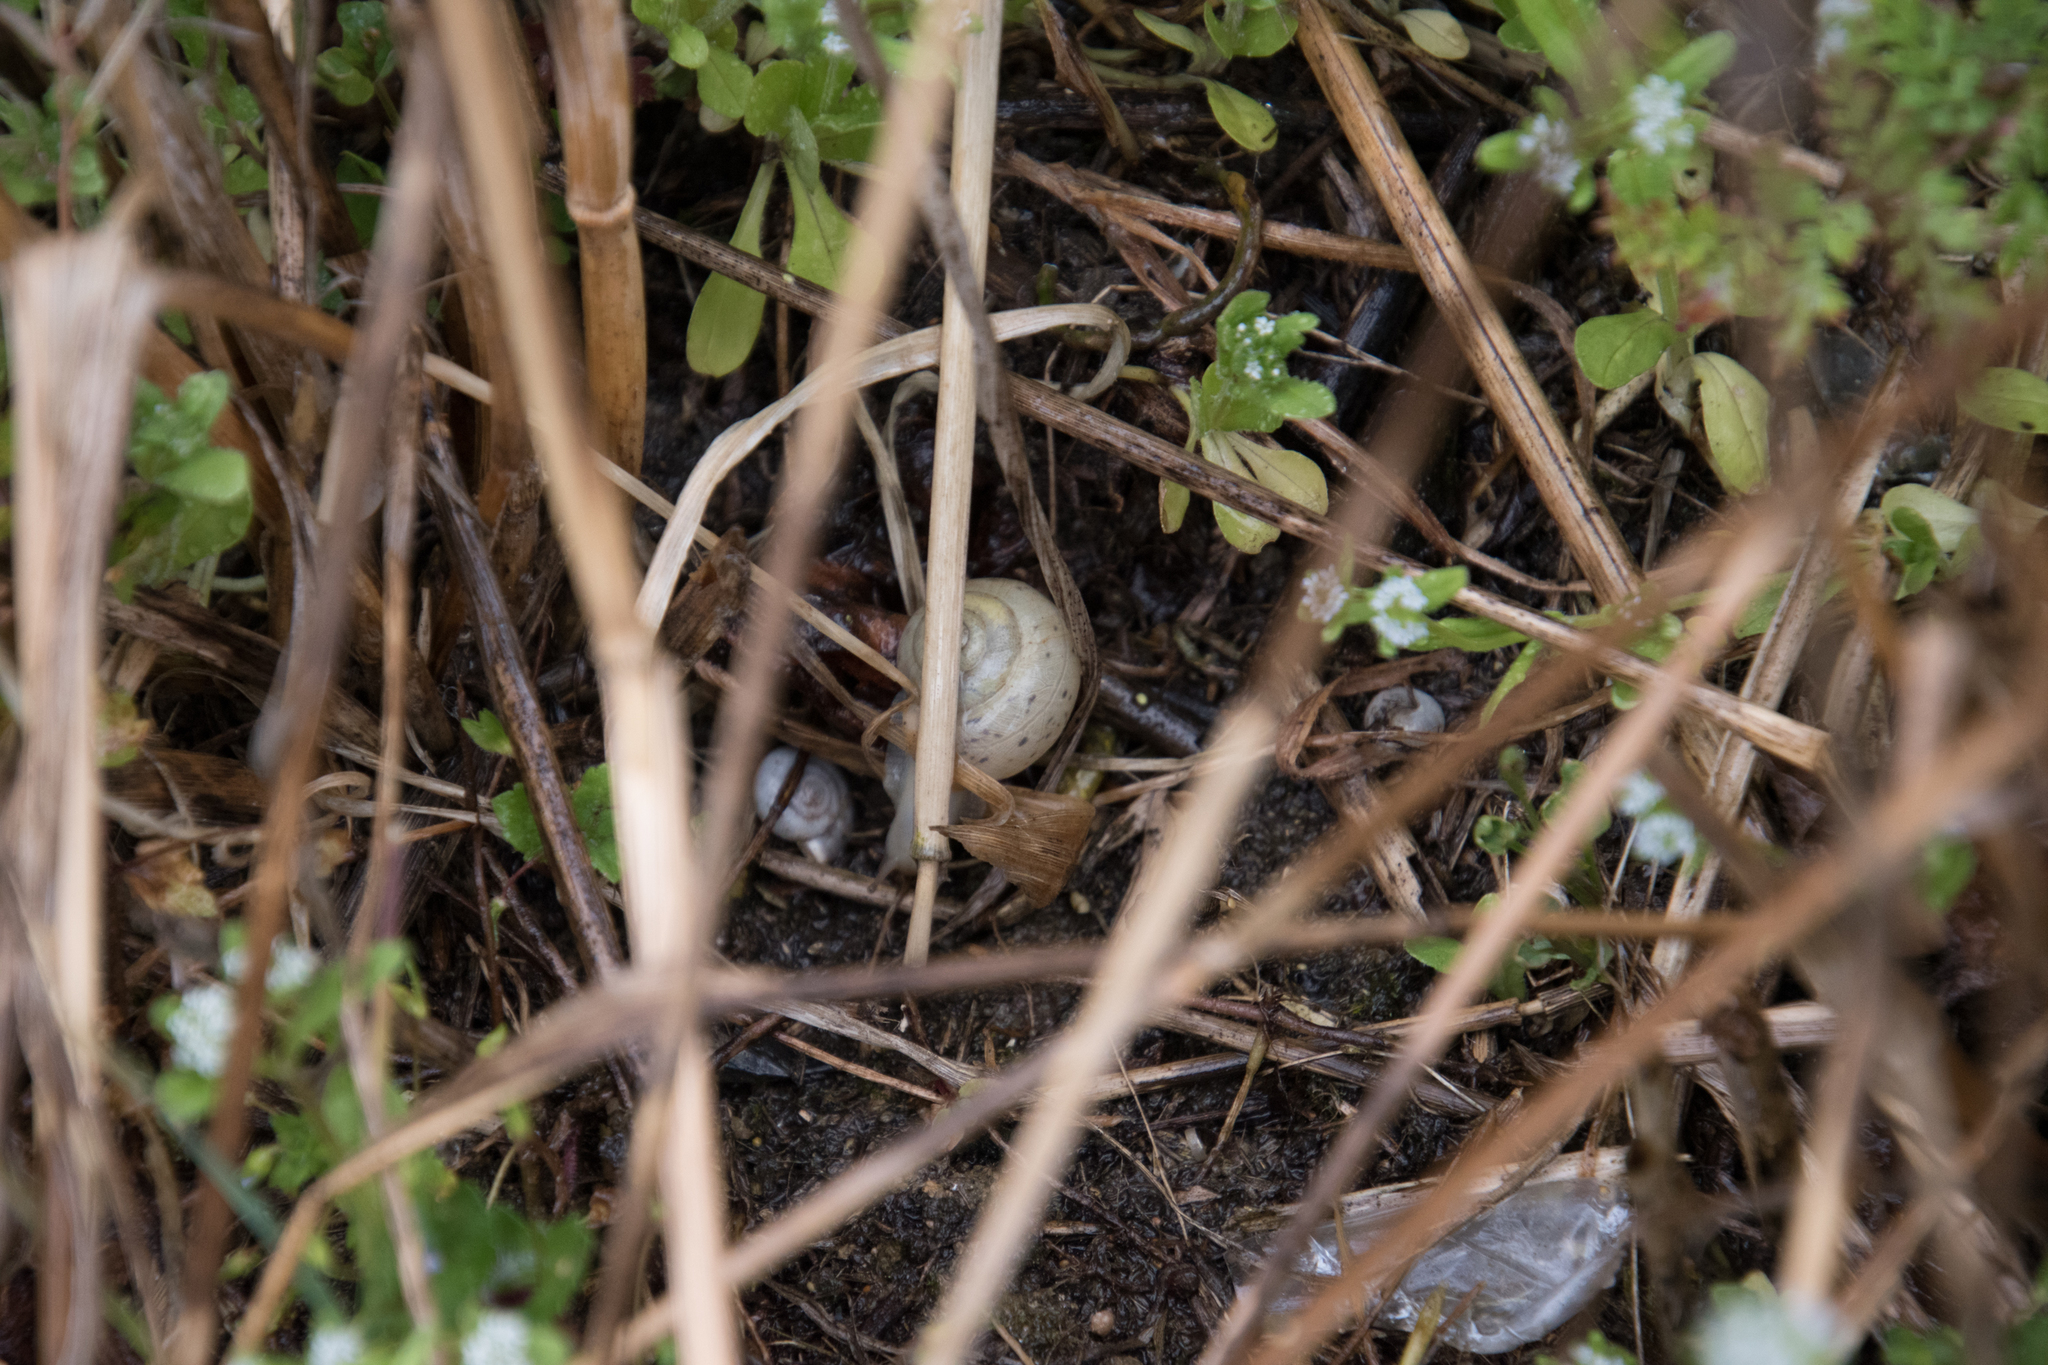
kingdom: Animalia
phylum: Mollusca
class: Gastropoda
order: Stylommatophora
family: Camaenidae
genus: Fruticicola
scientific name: Fruticicola fruticum
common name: Bush snail
